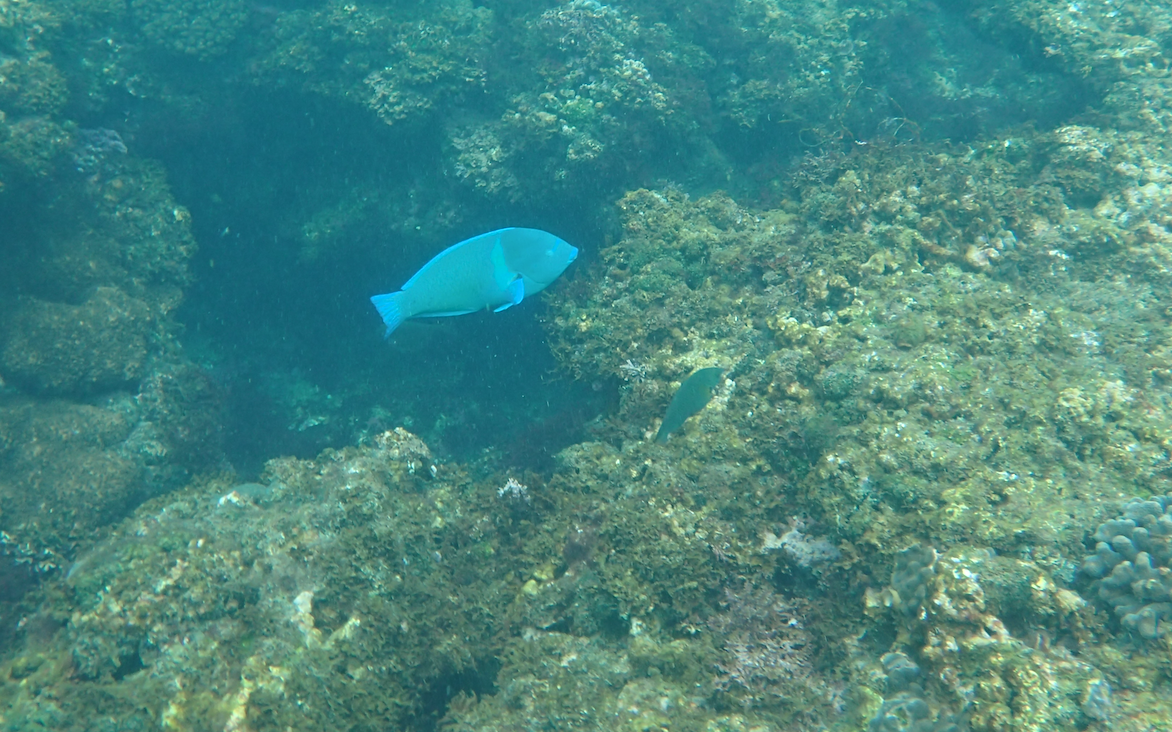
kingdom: Animalia
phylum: Chordata
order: Perciformes
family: Labridae
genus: Anampses
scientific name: Anampses caeruleopunctatus
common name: Bluespotted wrasse
